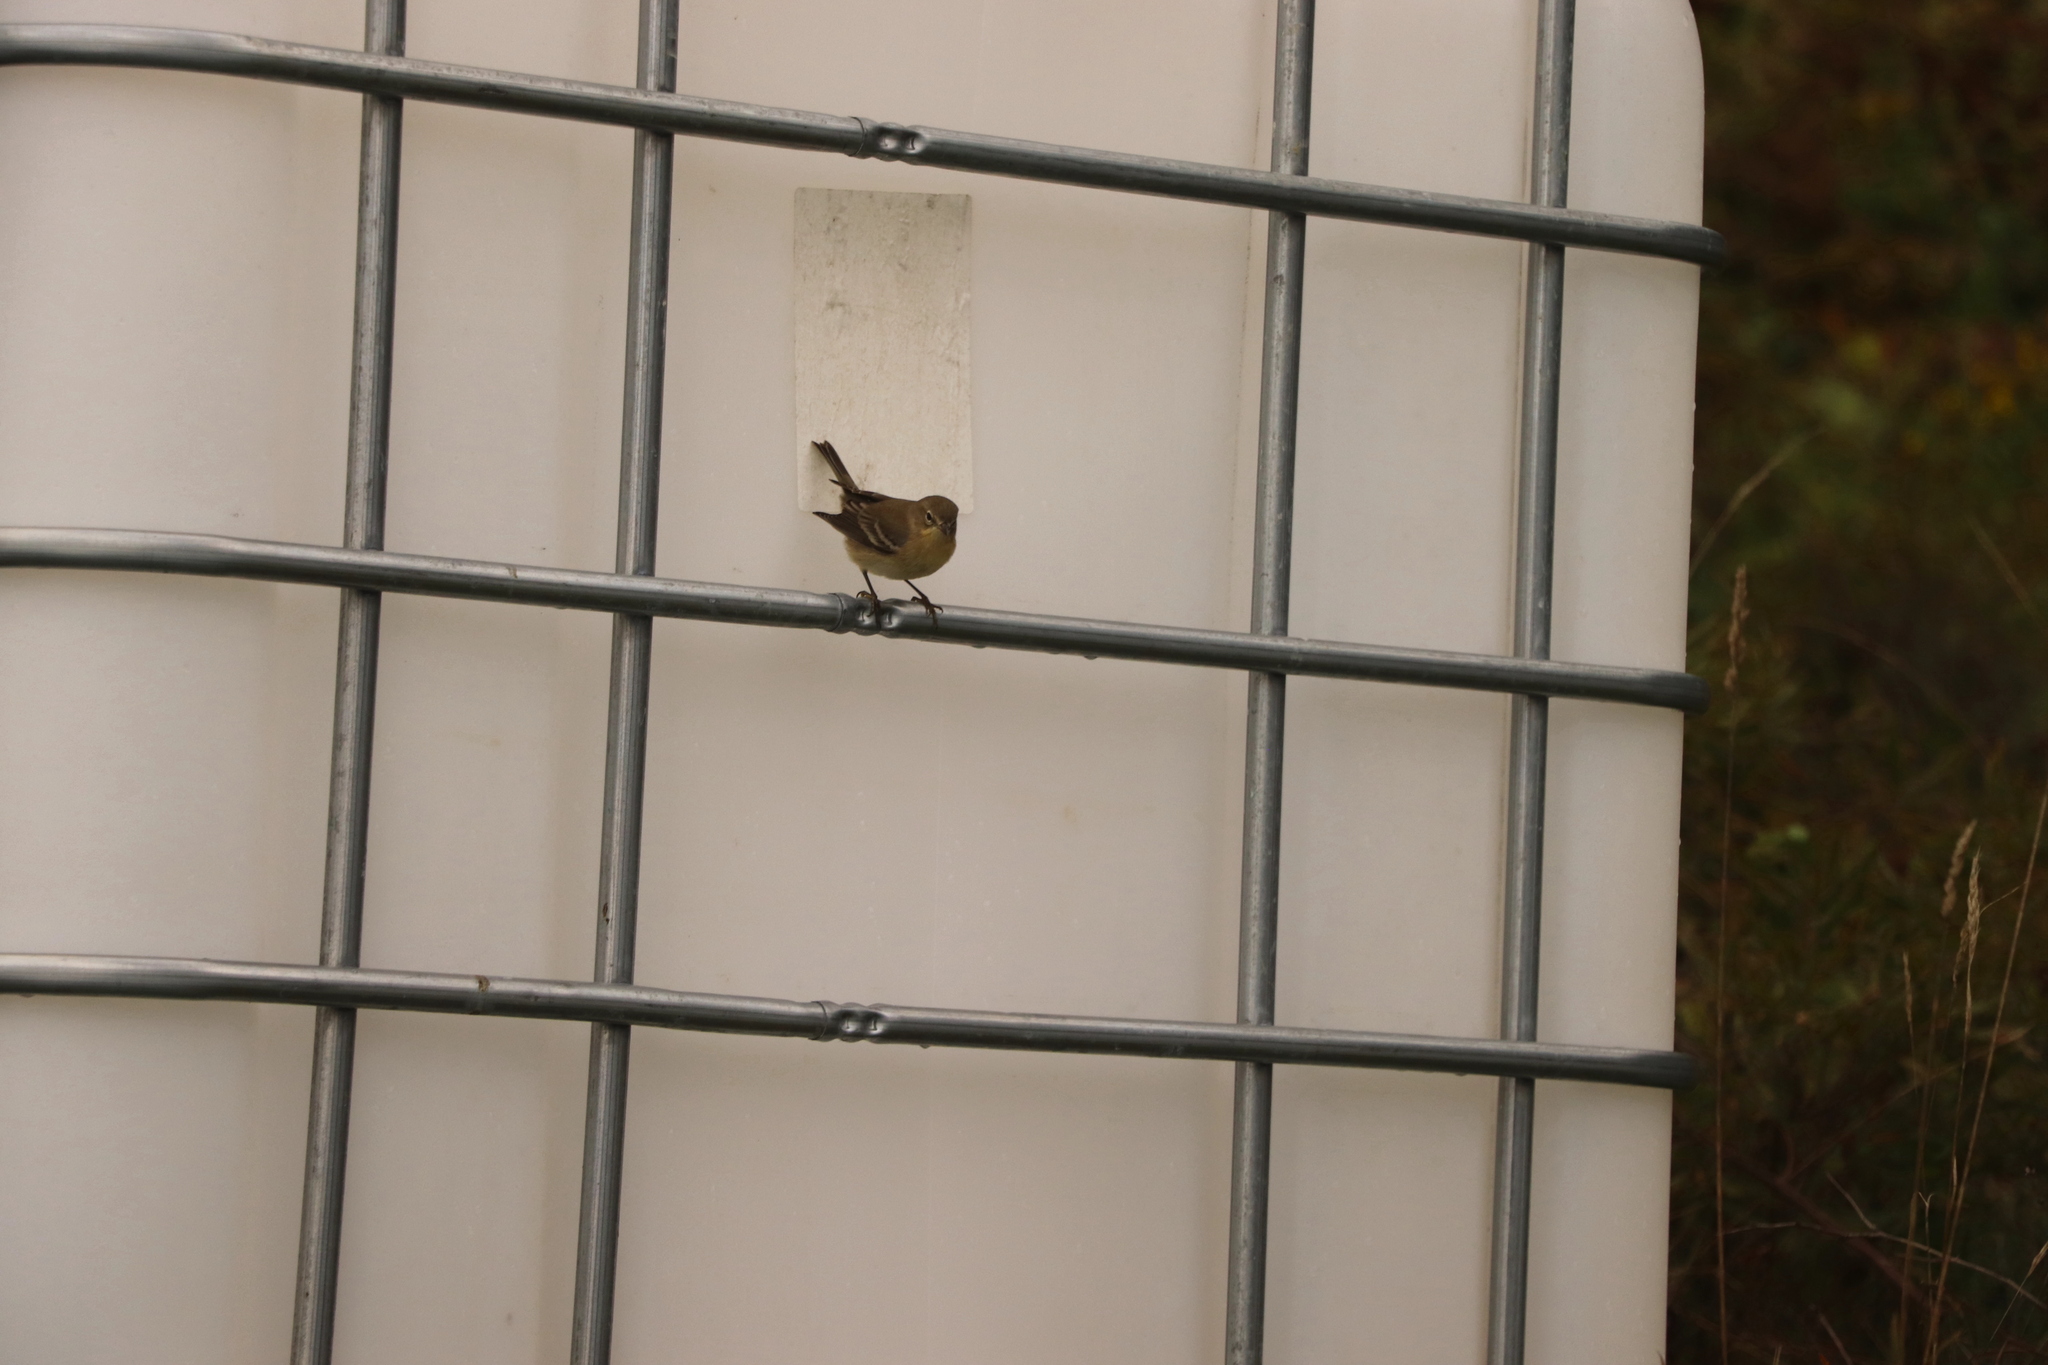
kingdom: Animalia
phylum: Chordata
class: Aves
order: Passeriformes
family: Parulidae
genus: Setophaga
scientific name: Setophaga pinus
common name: Pine warbler
